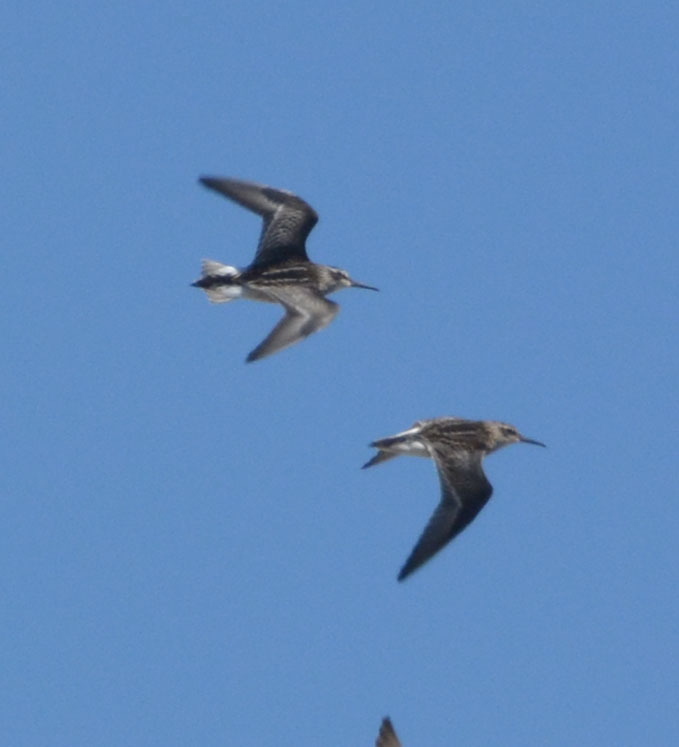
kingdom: Animalia
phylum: Chordata
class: Aves
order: Charadriiformes
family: Scolopacidae
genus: Calidris
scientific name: Calidris falcinellus
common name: Broad-billed sandpiper
